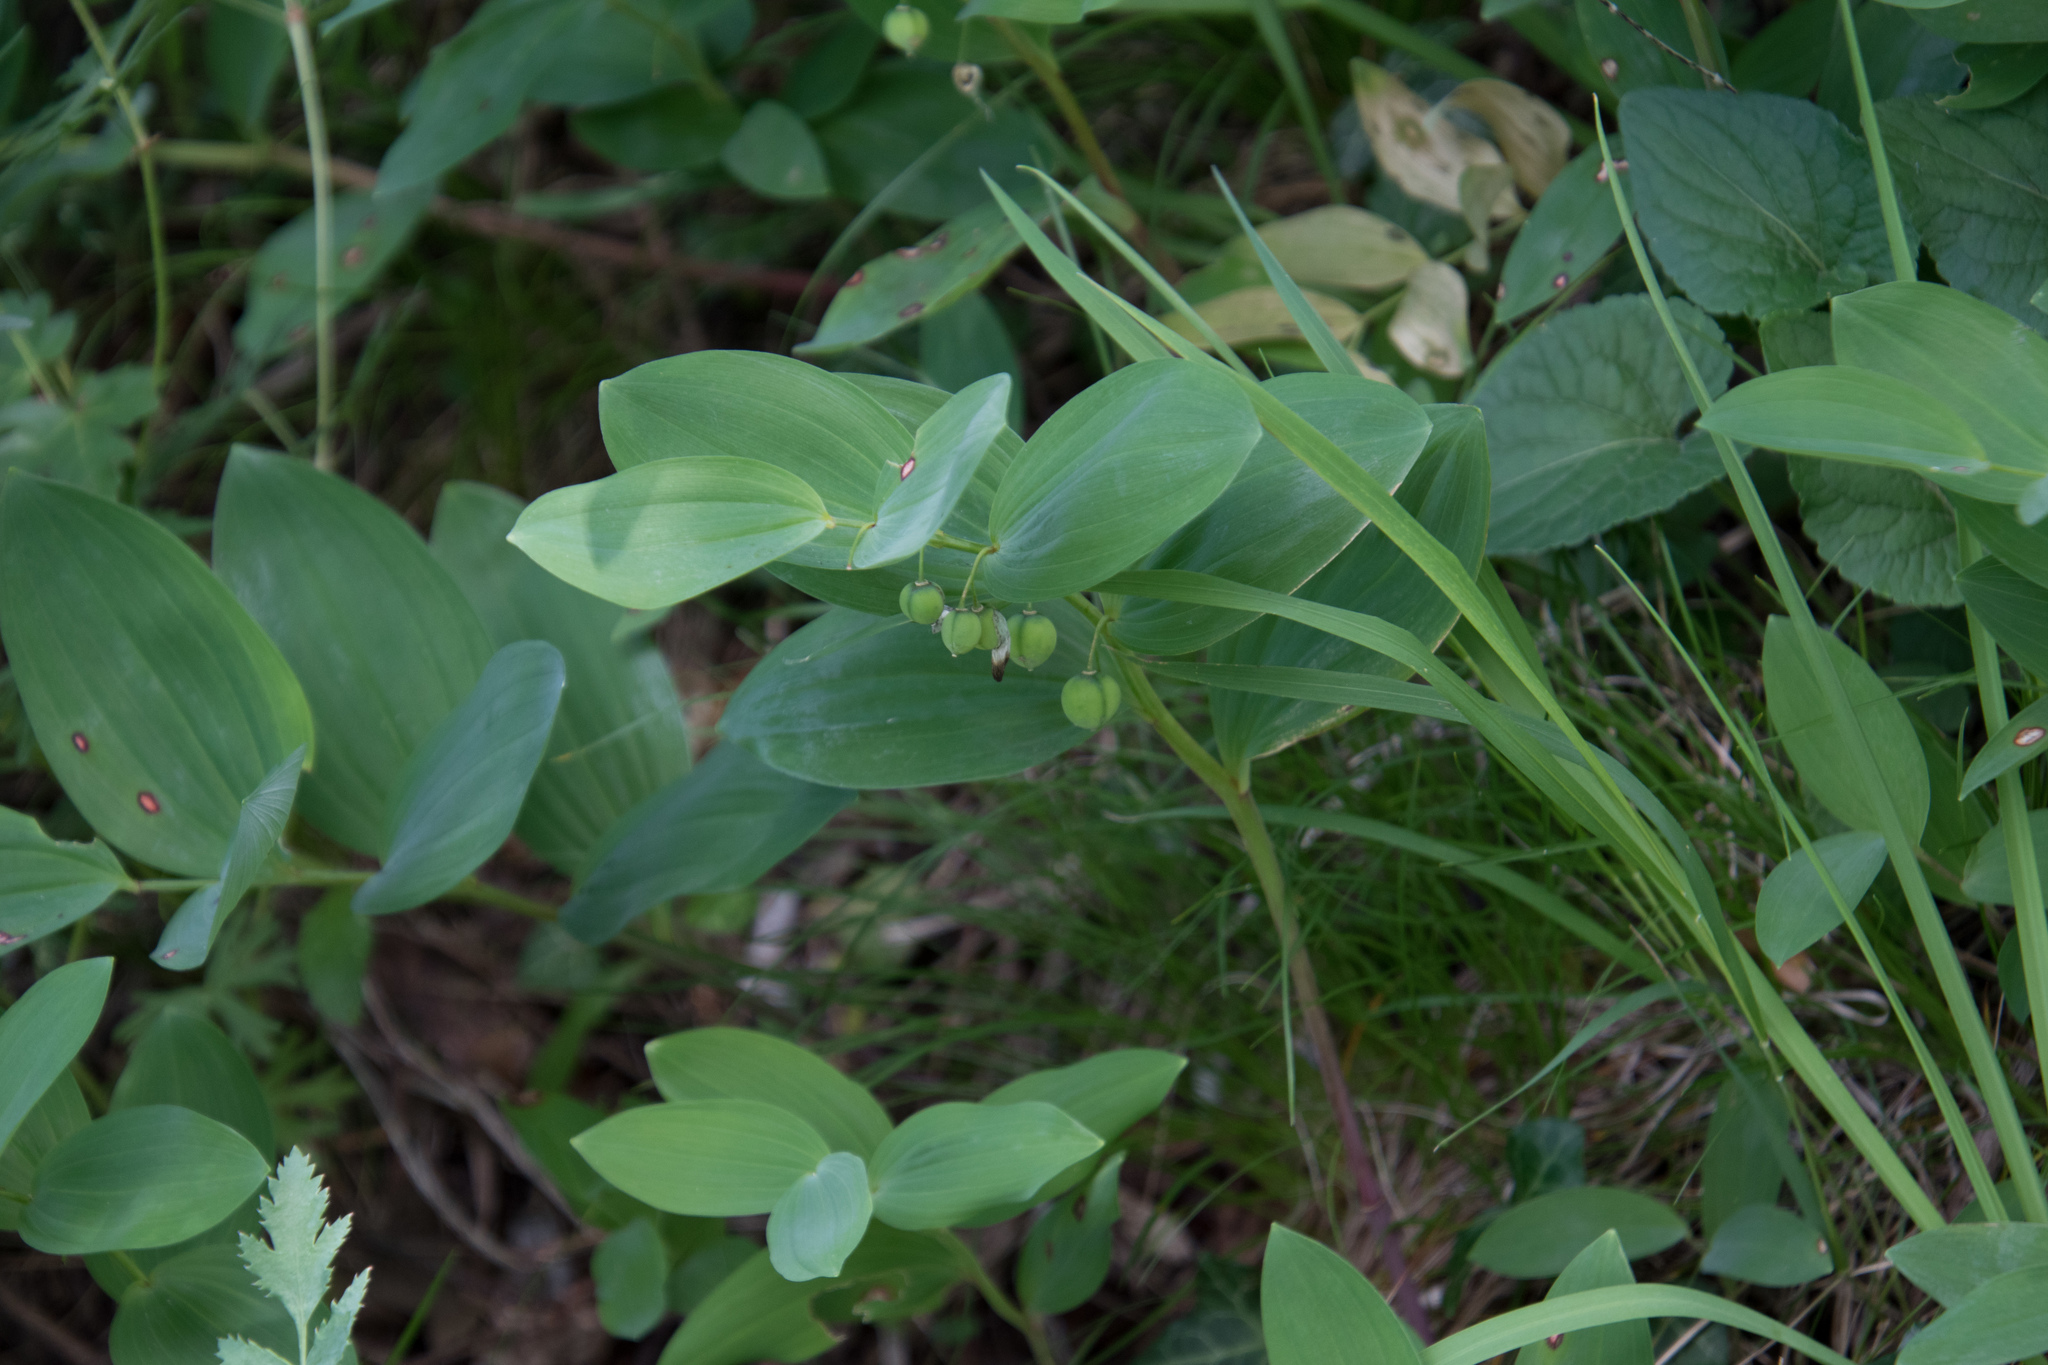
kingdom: Plantae
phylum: Tracheophyta
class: Liliopsida
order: Asparagales
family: Asparagaceae
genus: Polygonatum
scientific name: Polygonatum odoratum
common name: Angular solomon's-seal
